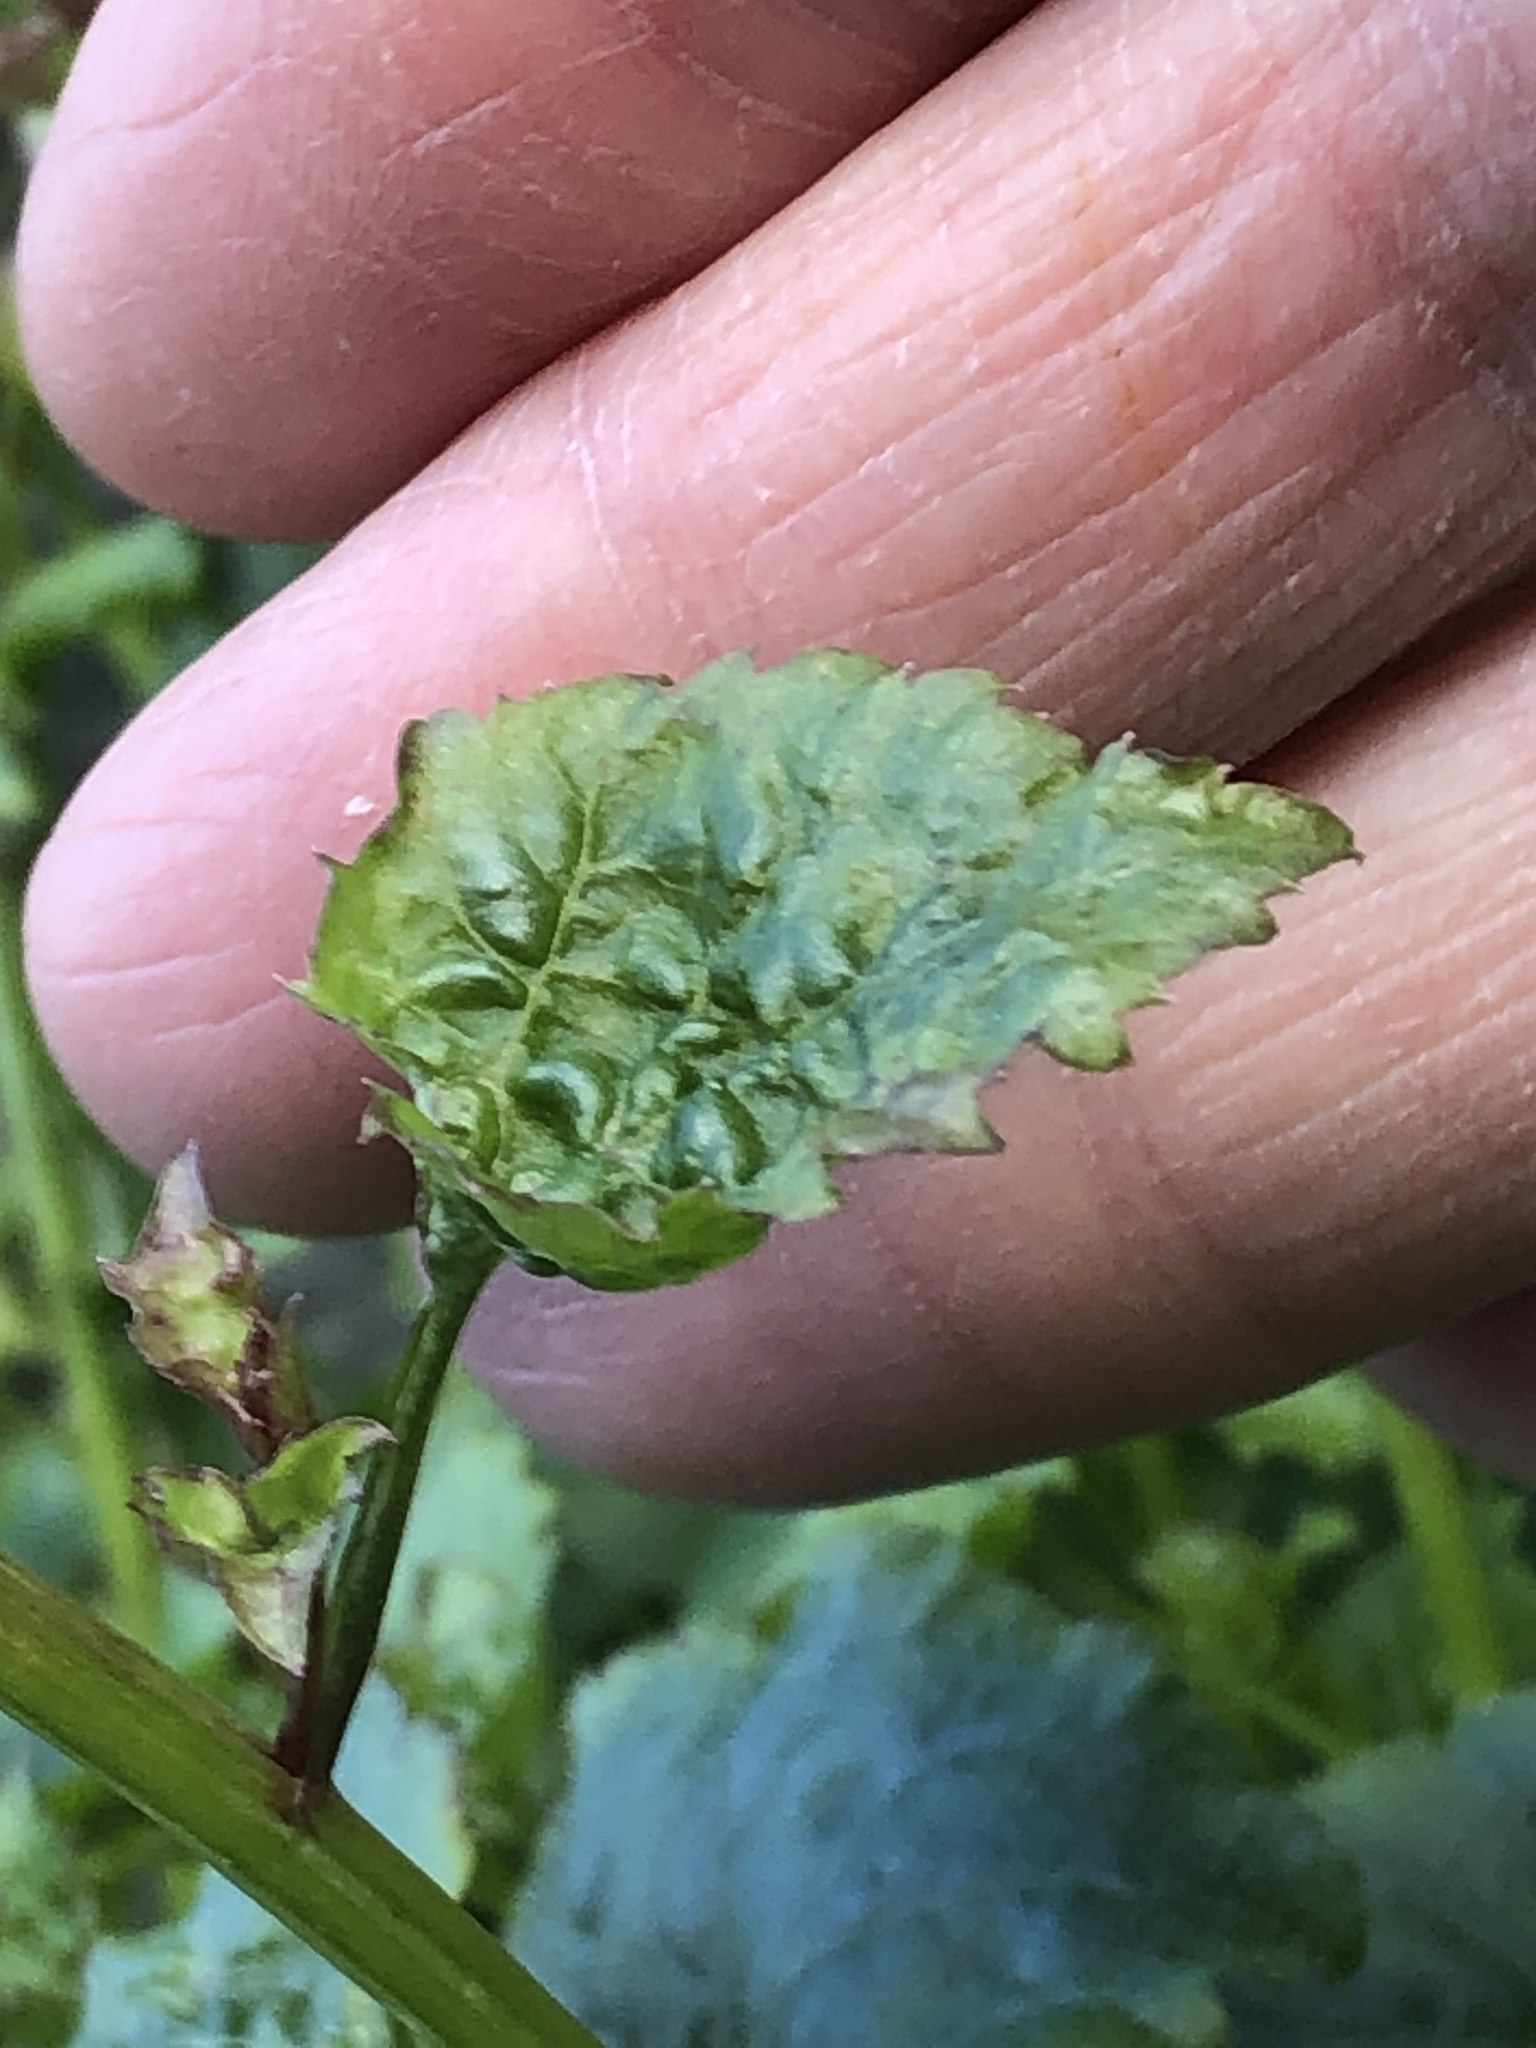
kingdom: Plantae
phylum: Tracheophyta
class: Magnoliopsida
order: Asterales
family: Campanulaceae
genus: Campanula
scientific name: Campanula poscharskyana
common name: Trailing bellflower
